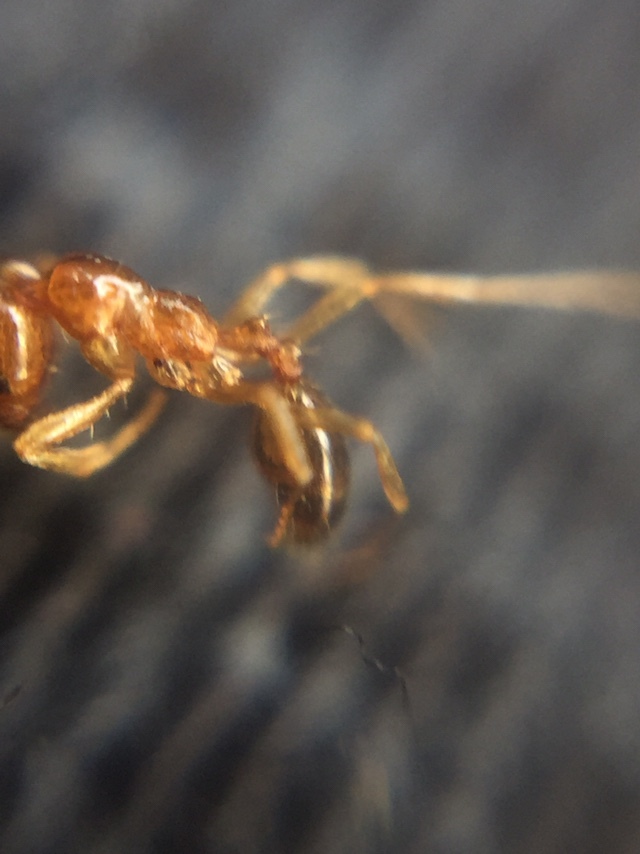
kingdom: Animalia
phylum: Arthropoda
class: Insecta
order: Hymenoptera
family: Formicidae
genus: Monomorium
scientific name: Monomorium destructor
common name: Destructive trailing ant
